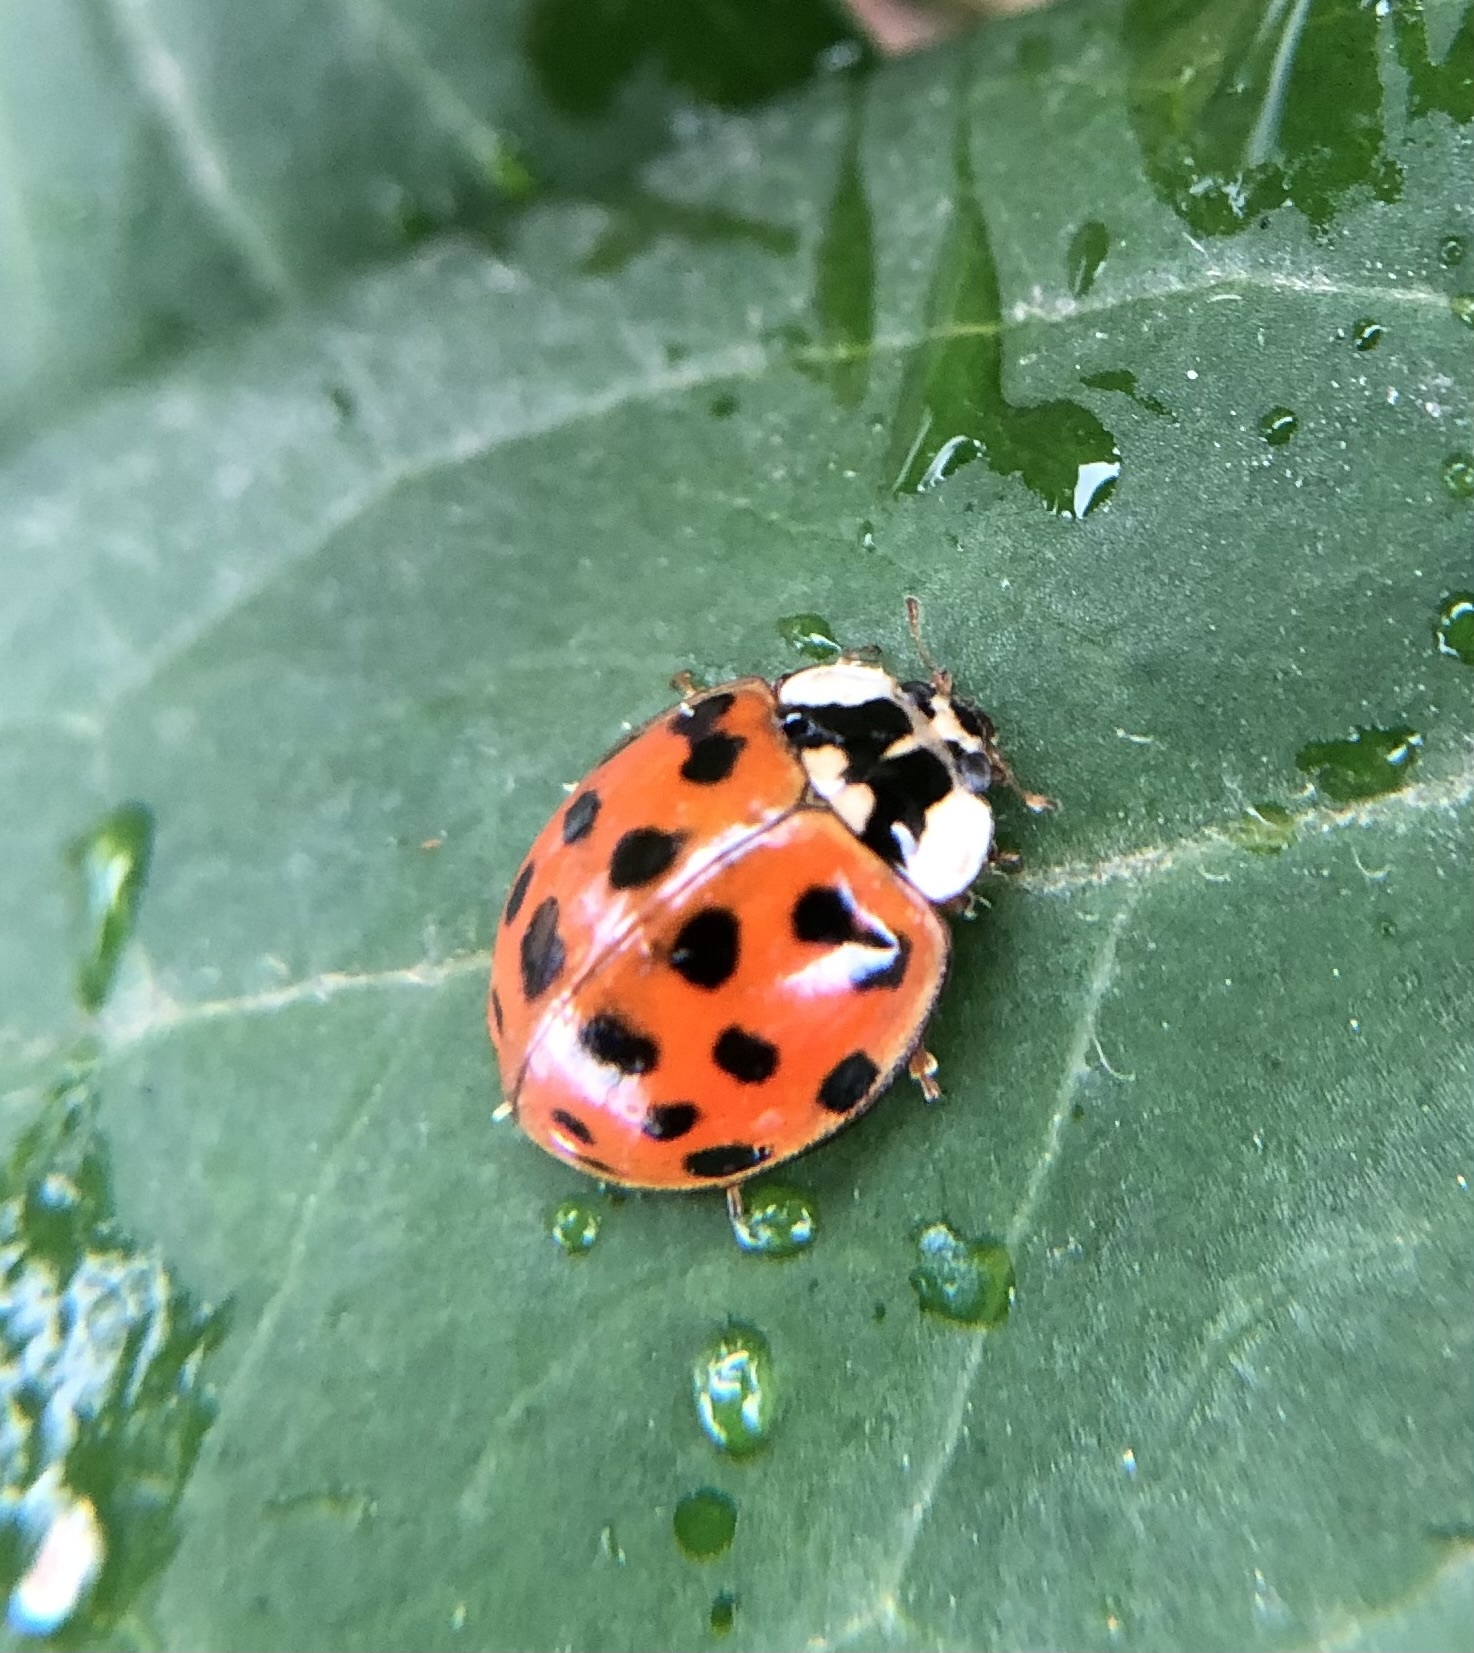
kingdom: Animalia
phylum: Arthropoda
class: Insecta
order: Coleoptera
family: Coccinellidae
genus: Harmonia
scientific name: Harmonia axyridis
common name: Harlequin ladybird
